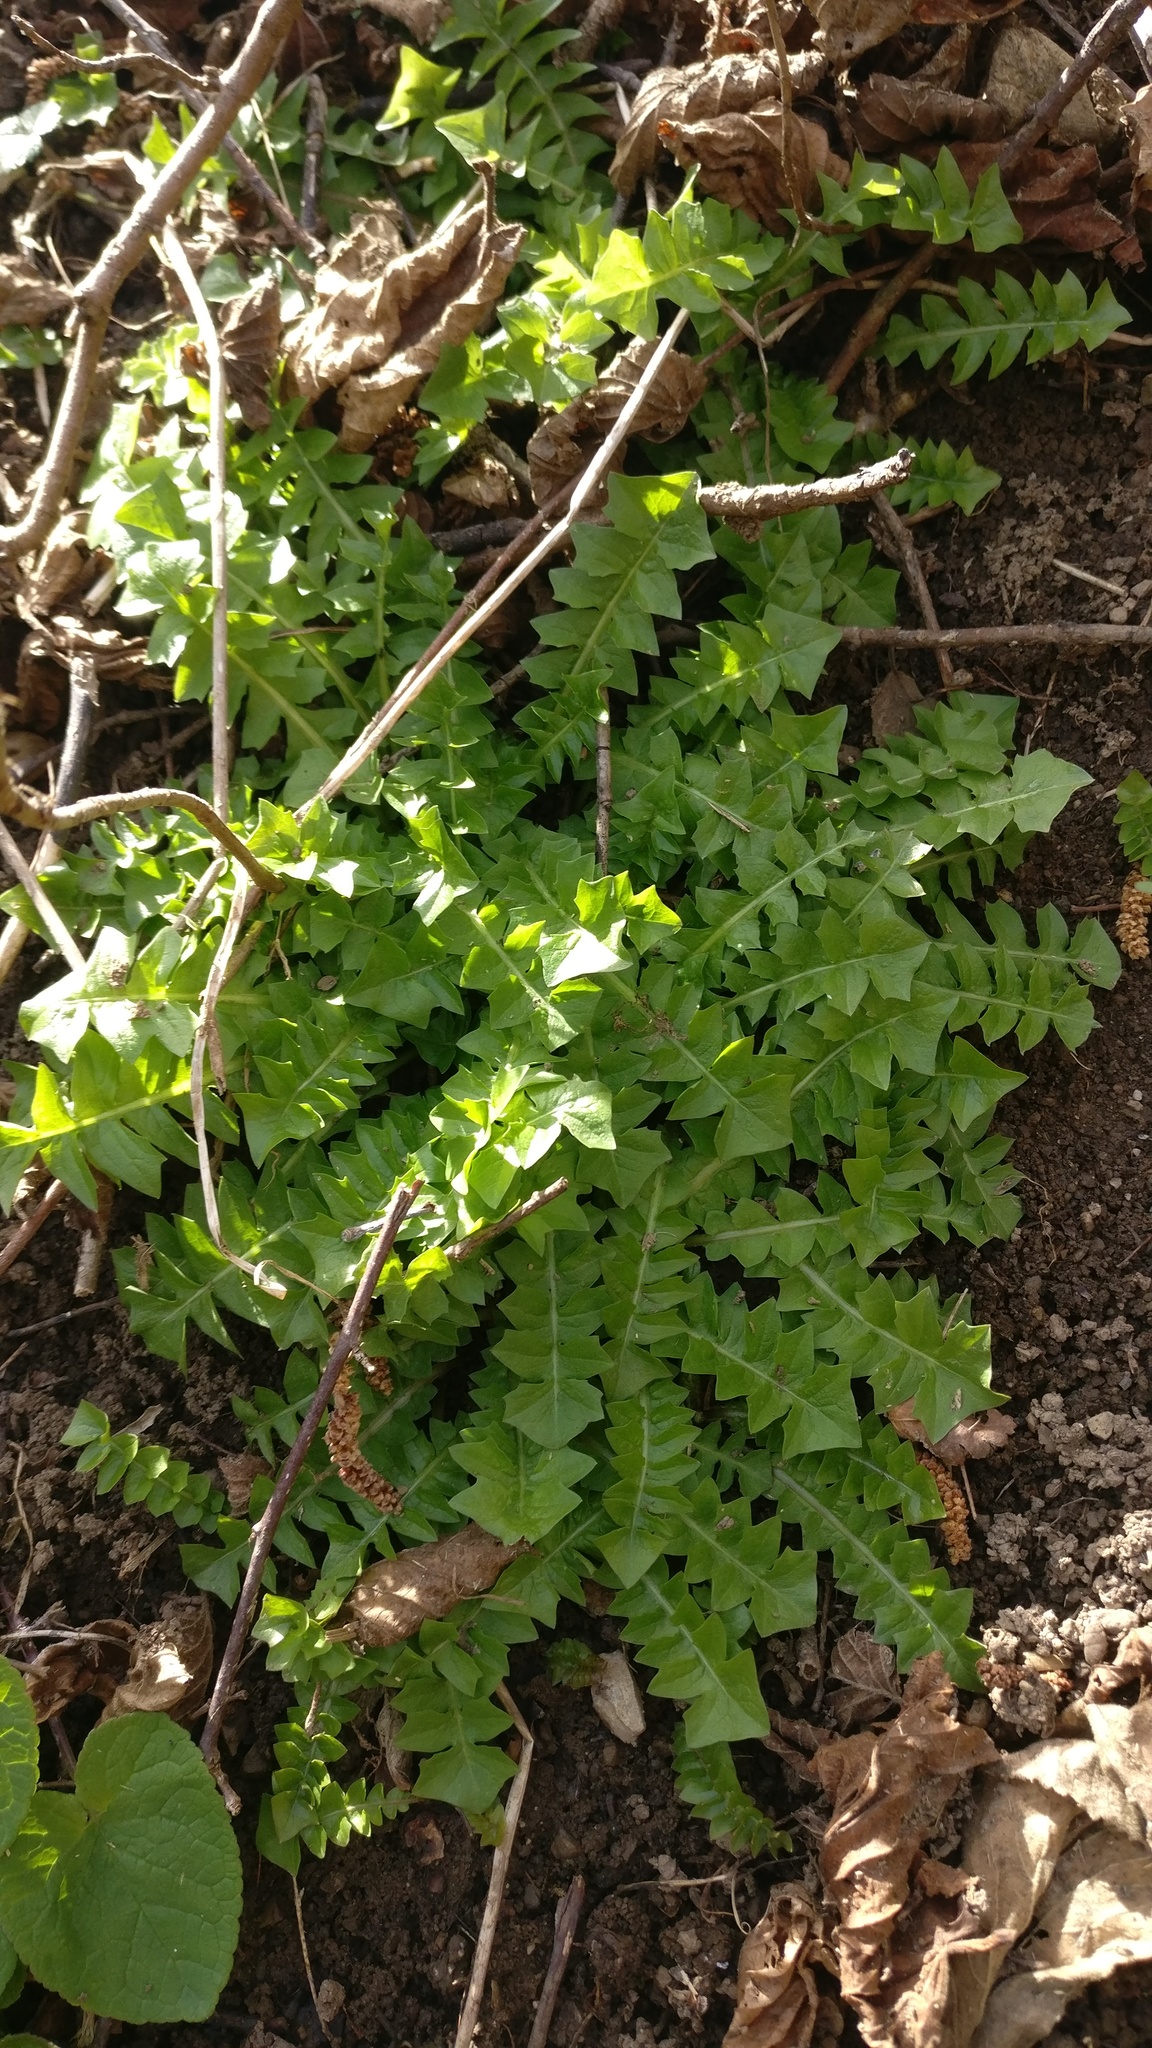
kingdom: Plantae
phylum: Tracheophyta
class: Magnoliopsida
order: Asterales
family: Asteraceae
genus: Aposeris
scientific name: Aposeris foetida
